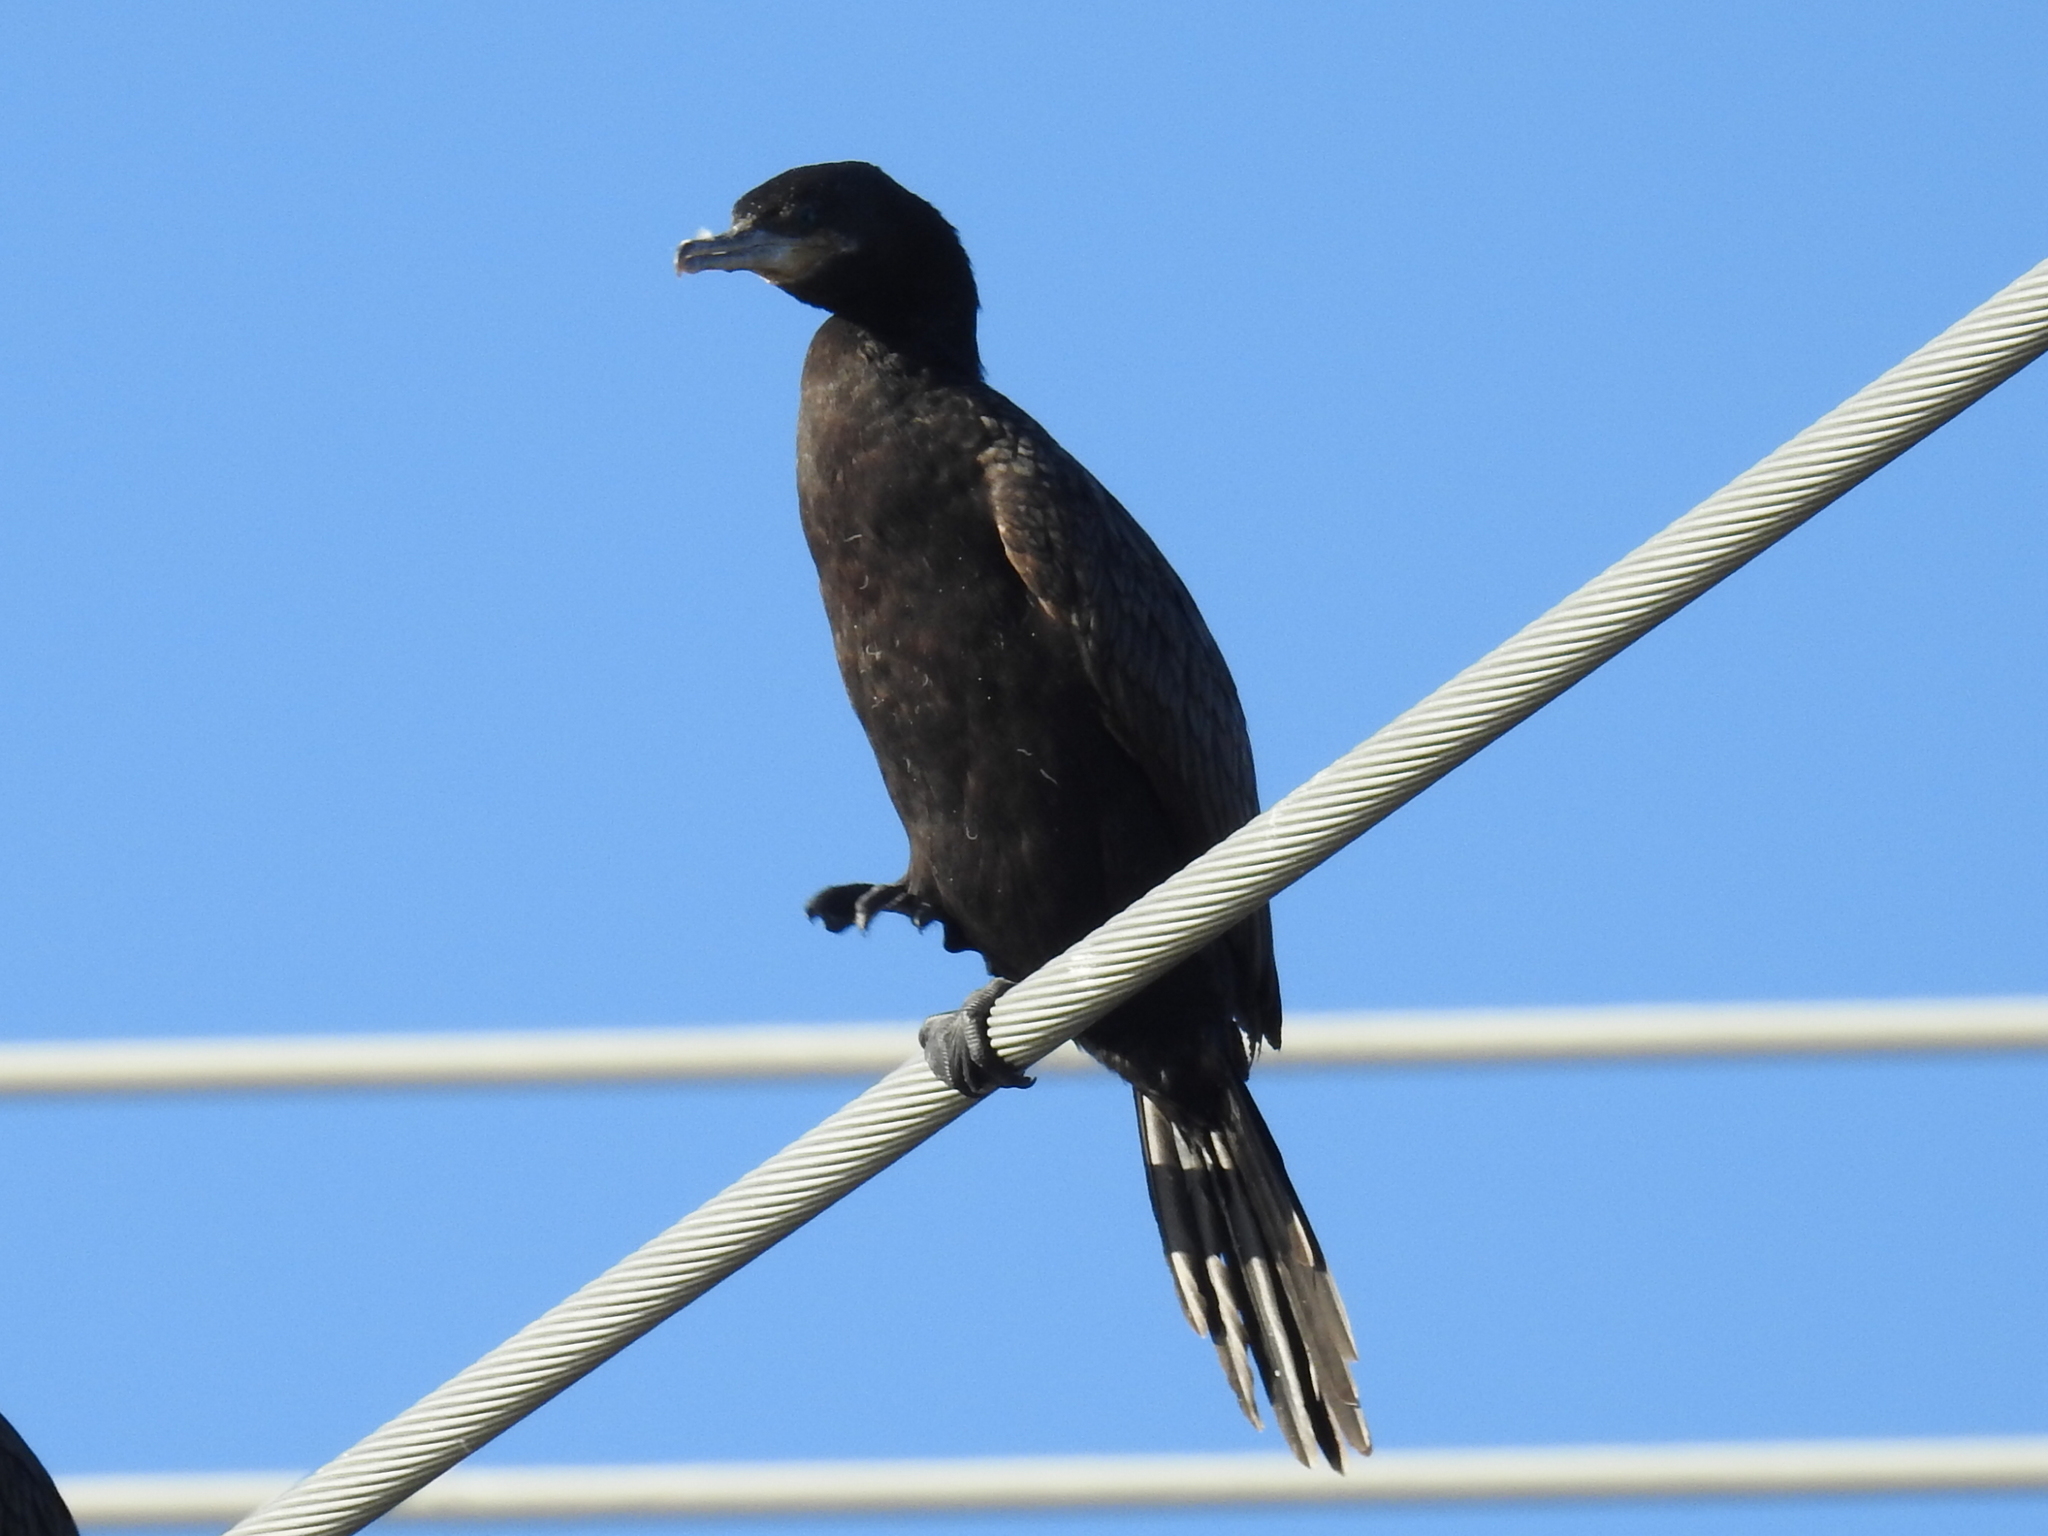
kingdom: Animalia
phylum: Chordata
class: Aves
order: Suliformes
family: Phalacrocoracidae
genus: Phalacrocorax
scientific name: Phalacrocorax brasilianus
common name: Neotropic cormorant
